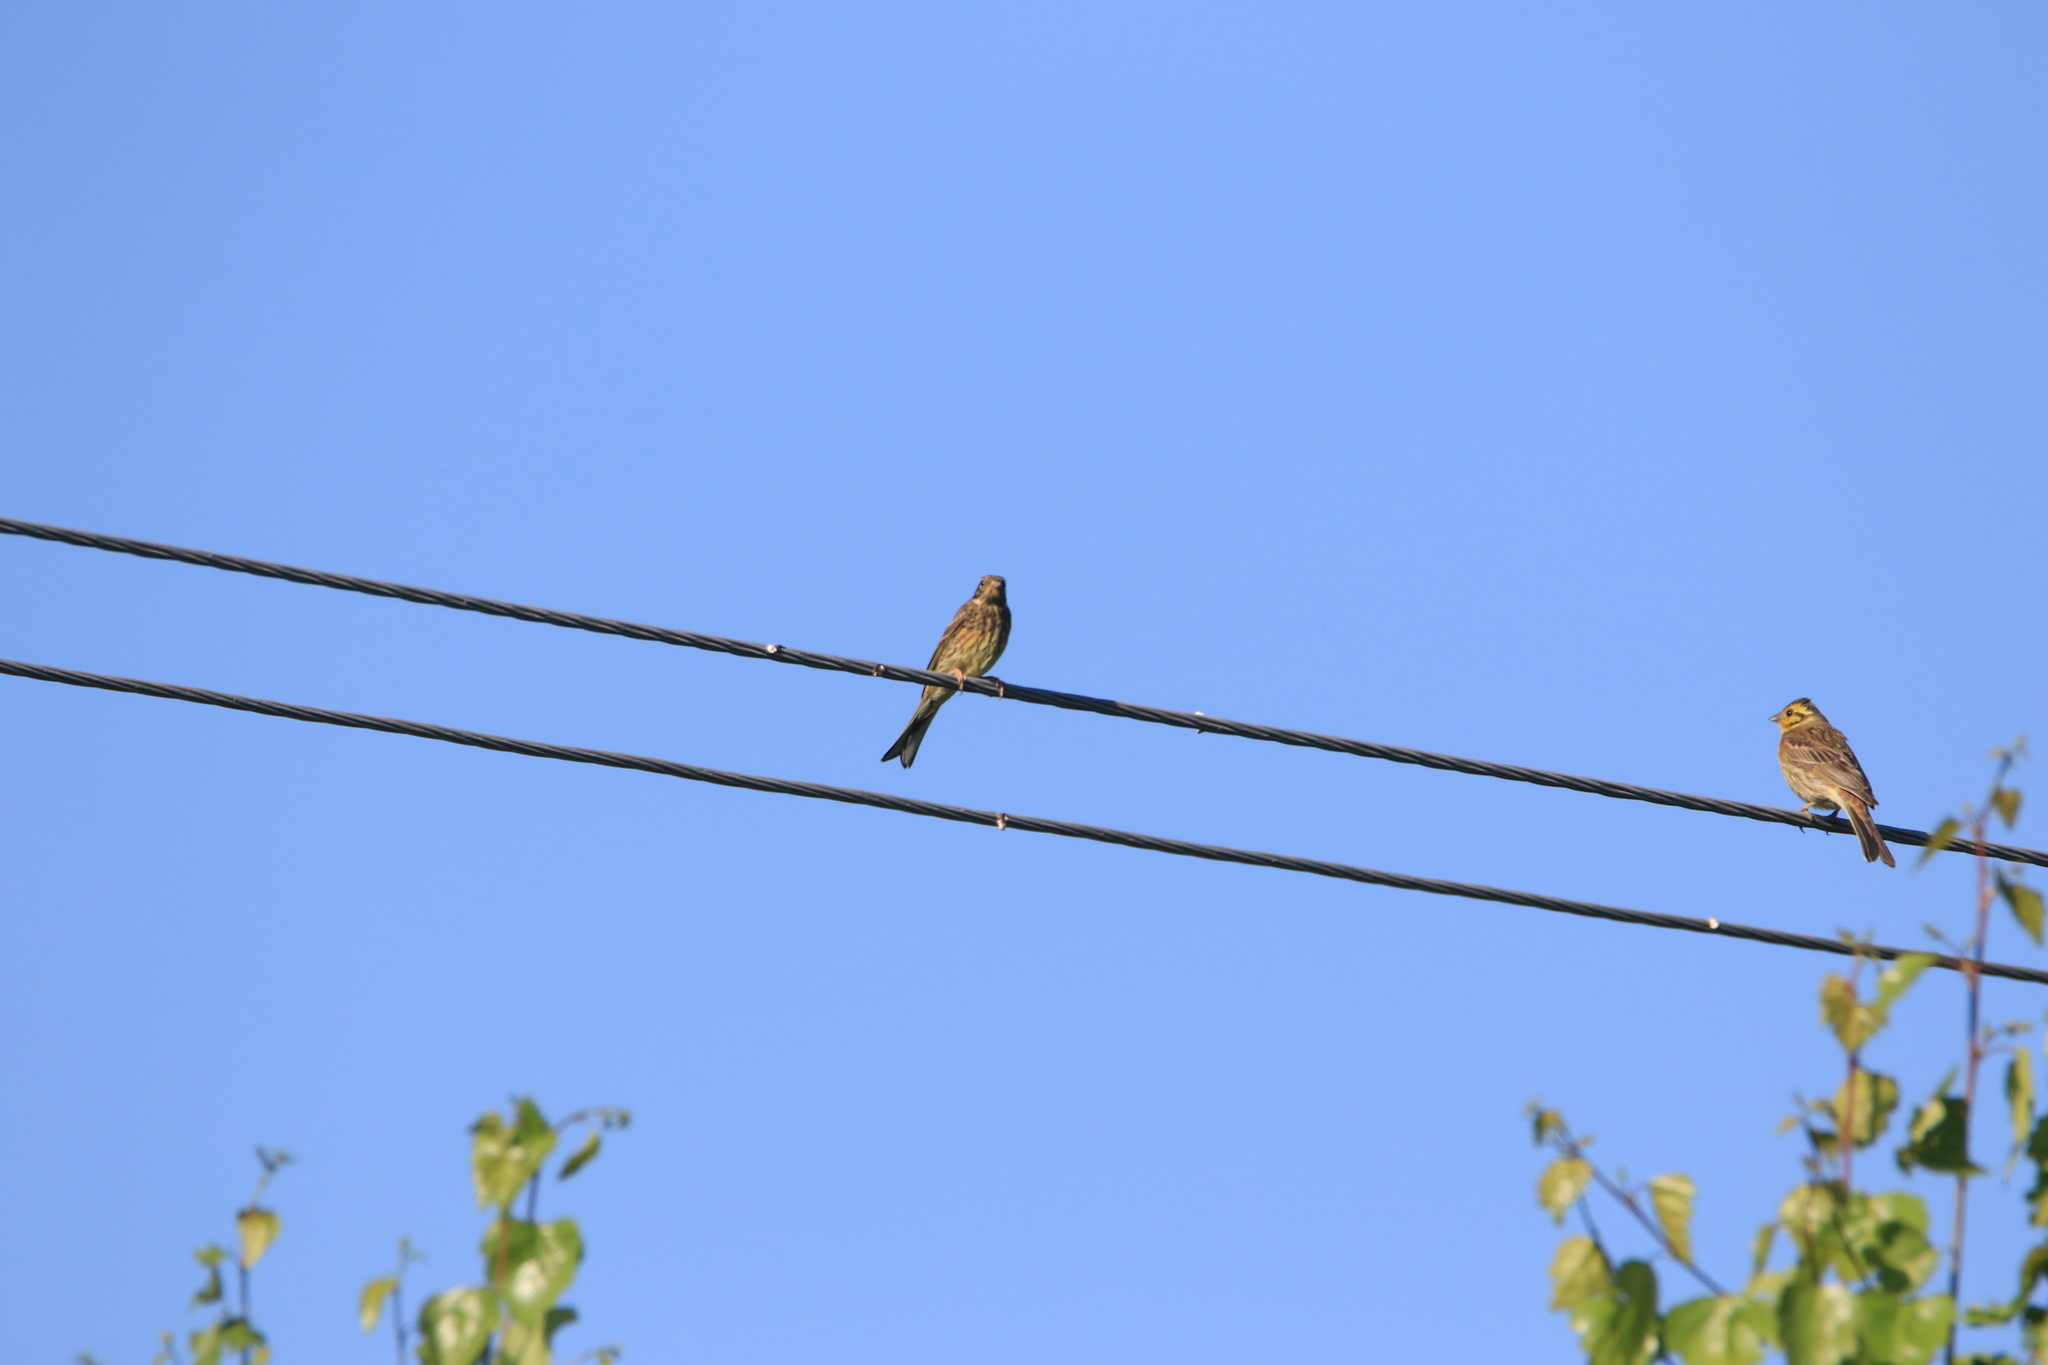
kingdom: Animalia
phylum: Chordata
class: Aves
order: Passeriformes
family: Emberizidae
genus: Emberiza
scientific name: Emberiza citrinella
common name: Yellowhammer
